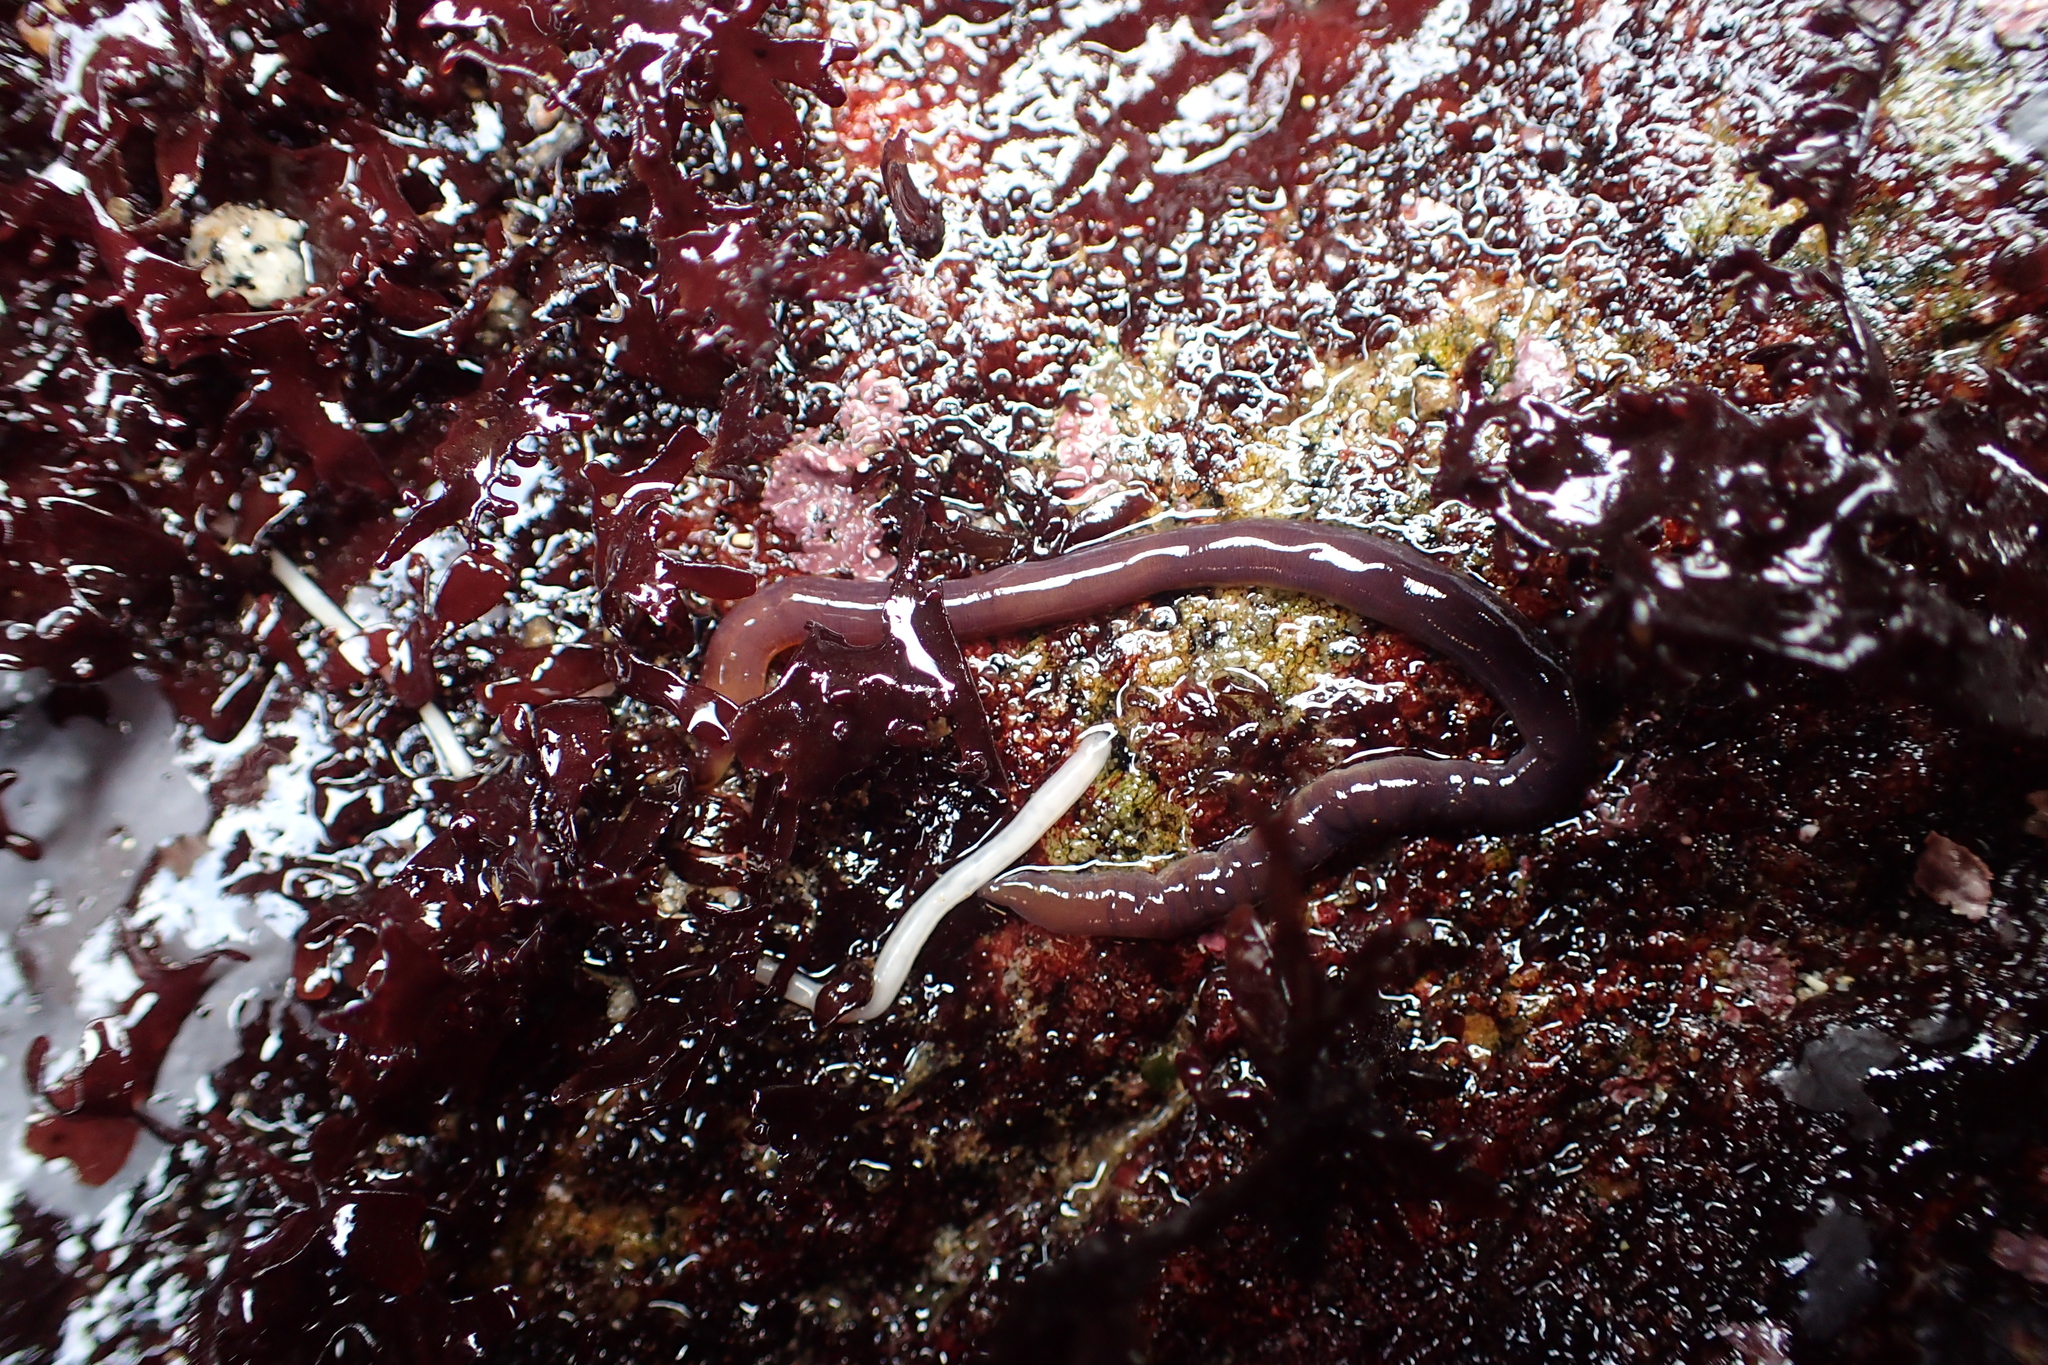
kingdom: Animalia
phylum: Nemertea
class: Hoplonemertea
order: Monostilifera
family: Neesiidae
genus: Paranemertes
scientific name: Paranemertes peregrina
